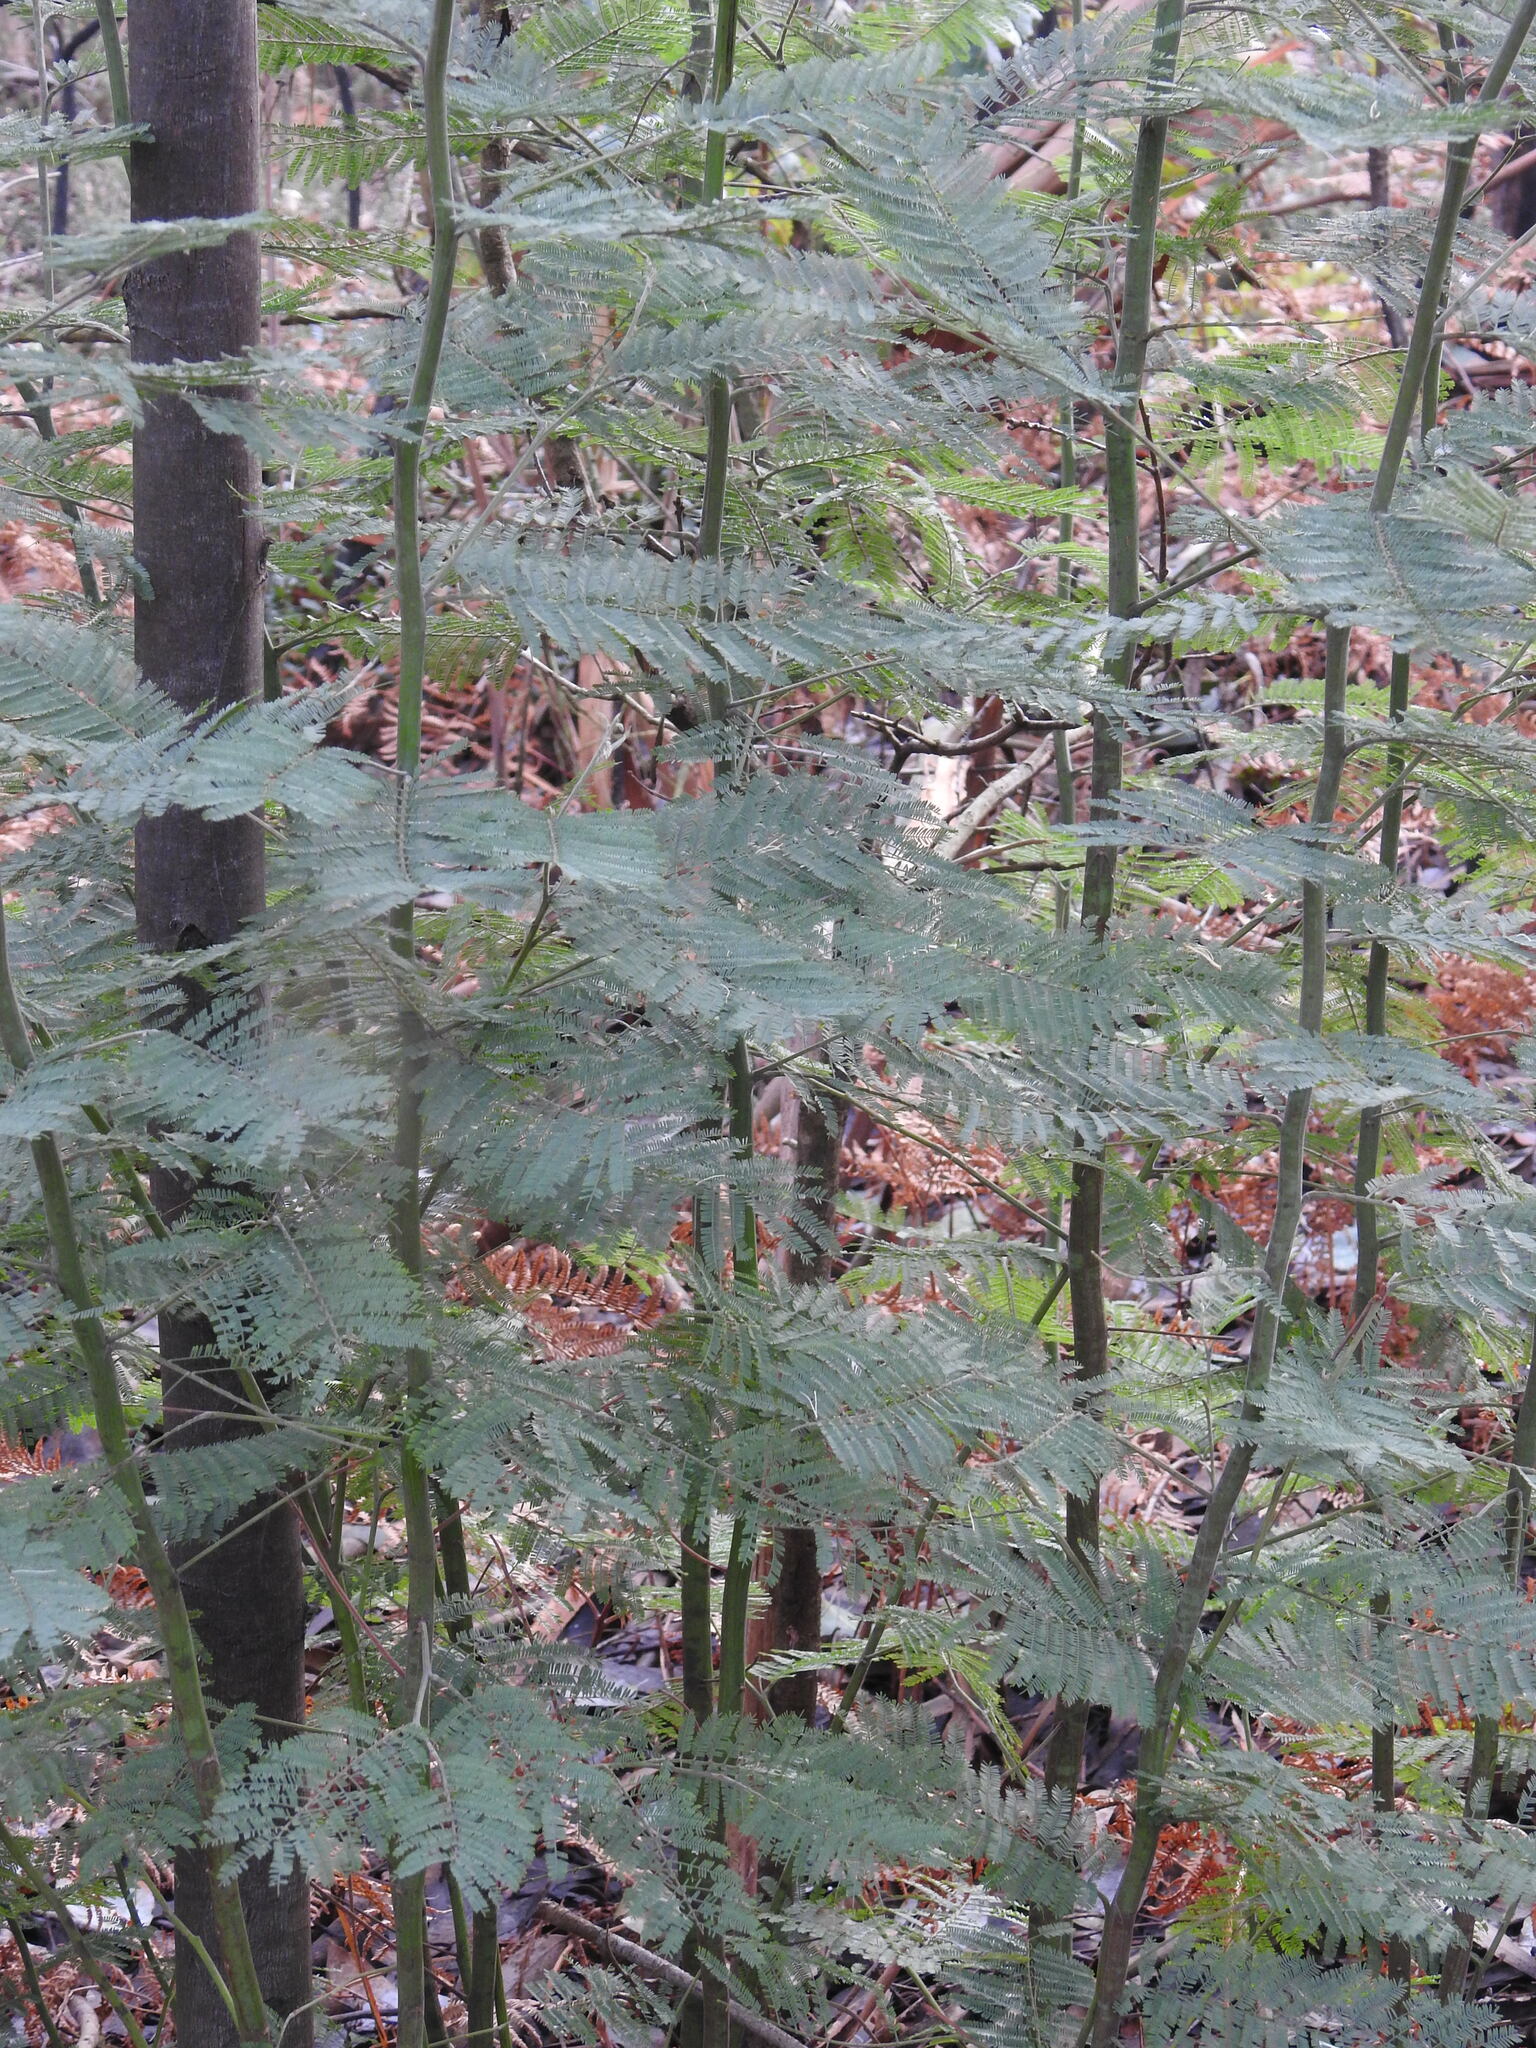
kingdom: Plantae
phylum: Tracheophyta
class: Magnoliopsida
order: Fabales
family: Fabaceae
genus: Acacia
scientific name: Acacia dealbata
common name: Silver wattle
